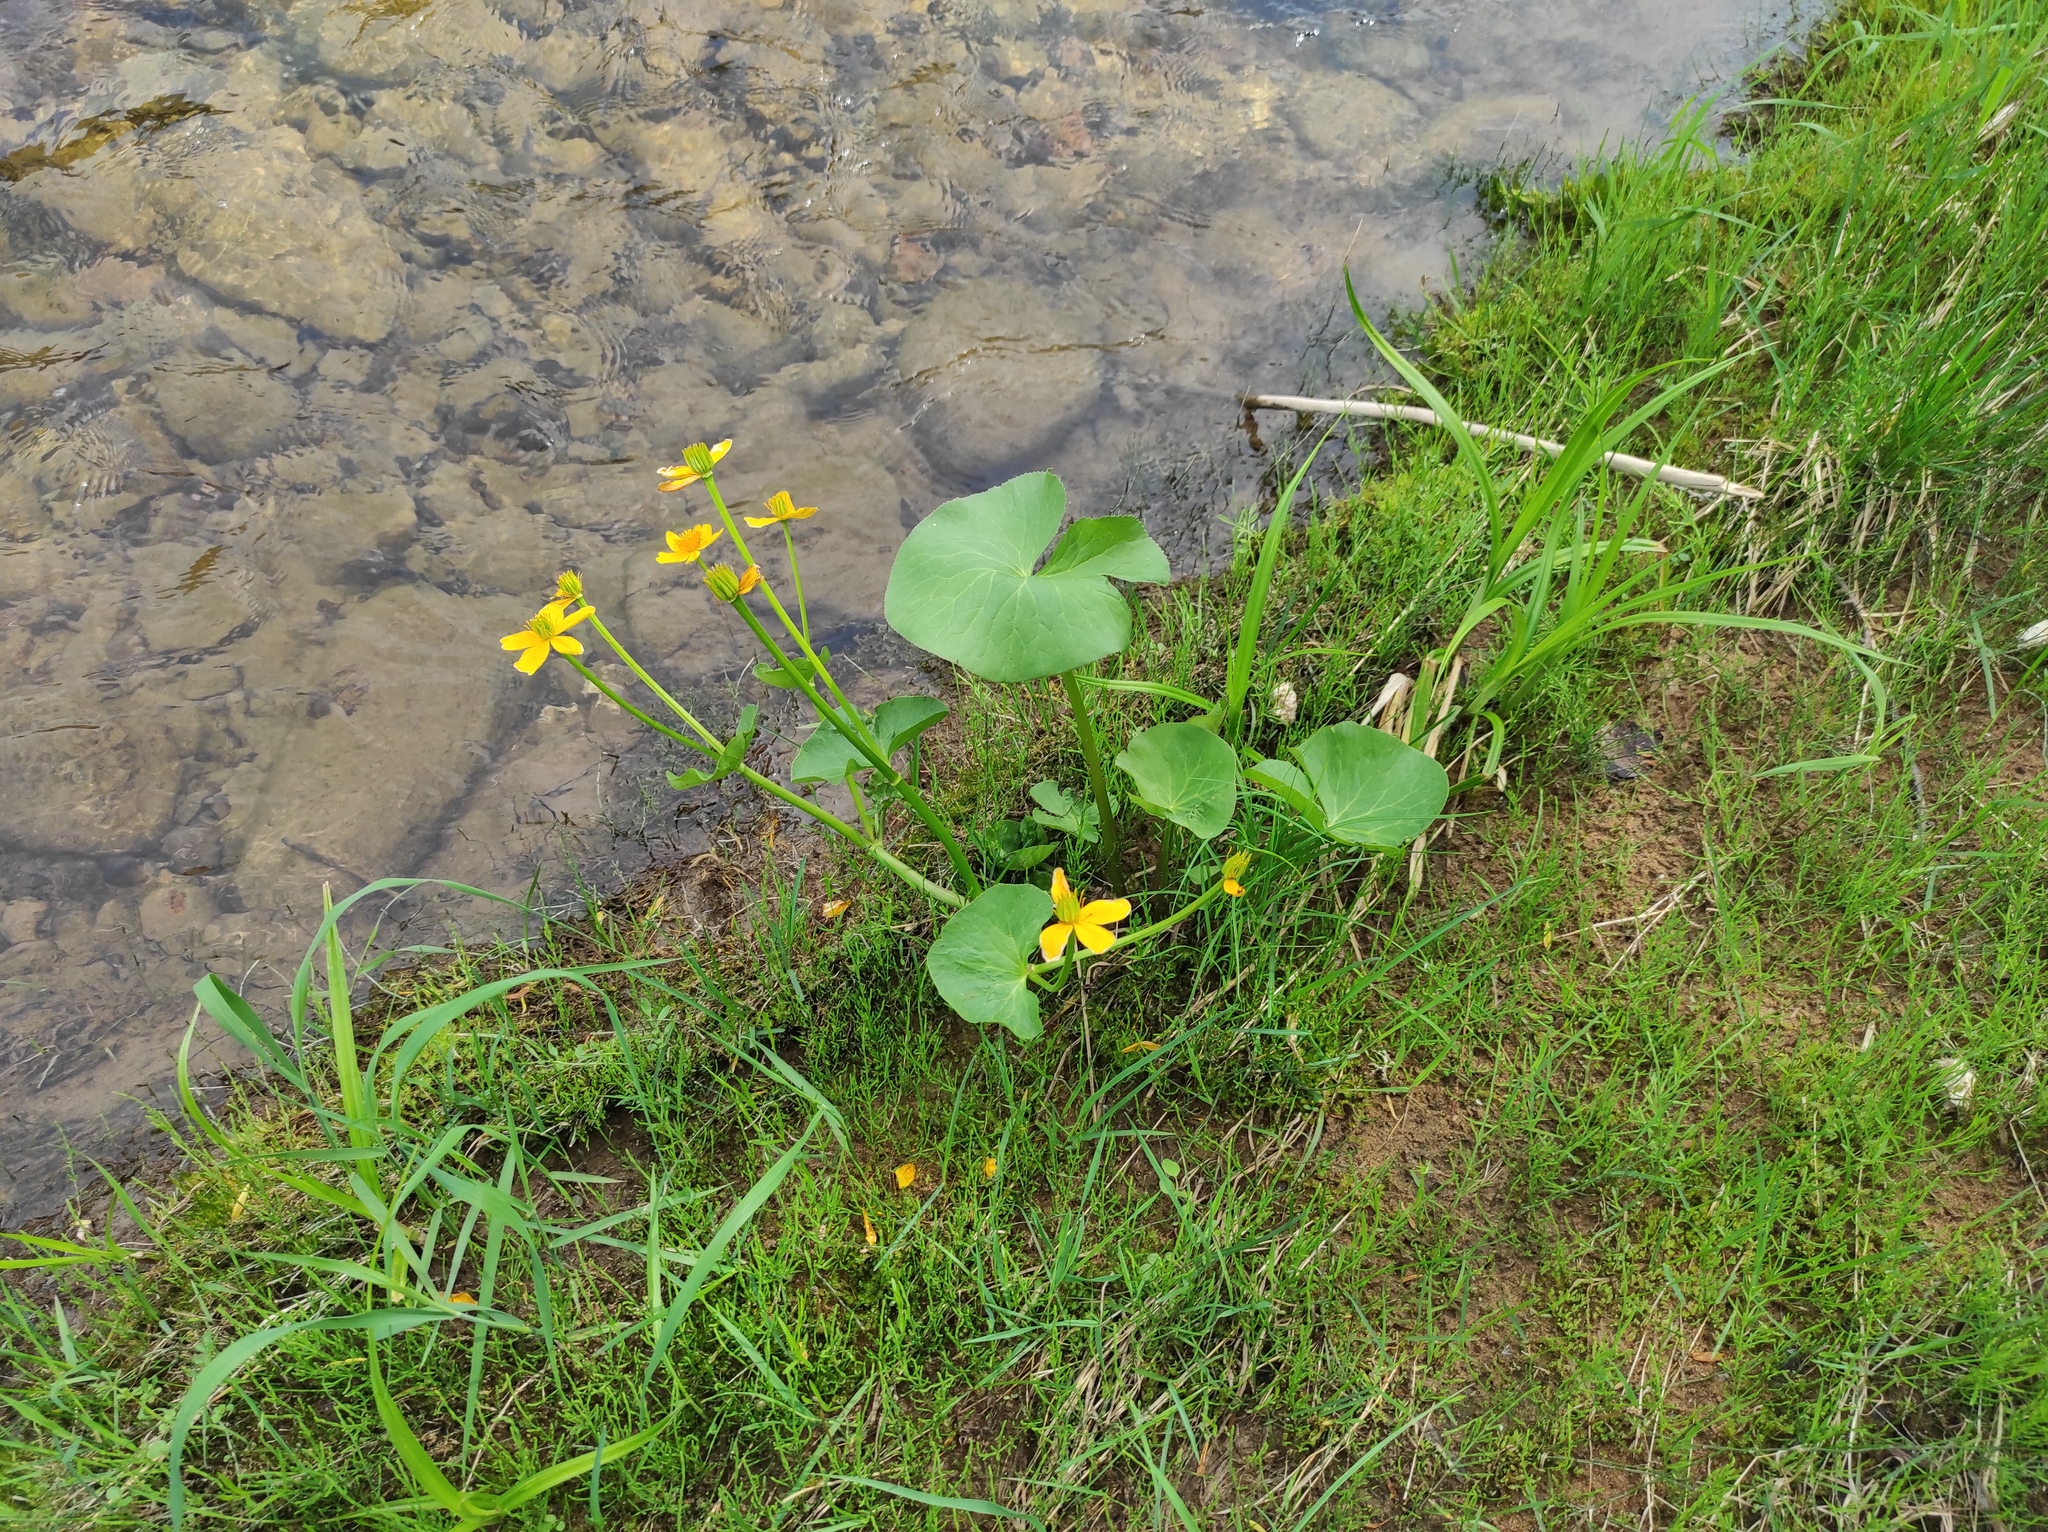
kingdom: Plantae
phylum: Tracheophyta
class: Magnoliopsida
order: Ranunculales
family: Ranunculaceae
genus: Caltha
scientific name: Caltha palustris
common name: Marsh marigold
